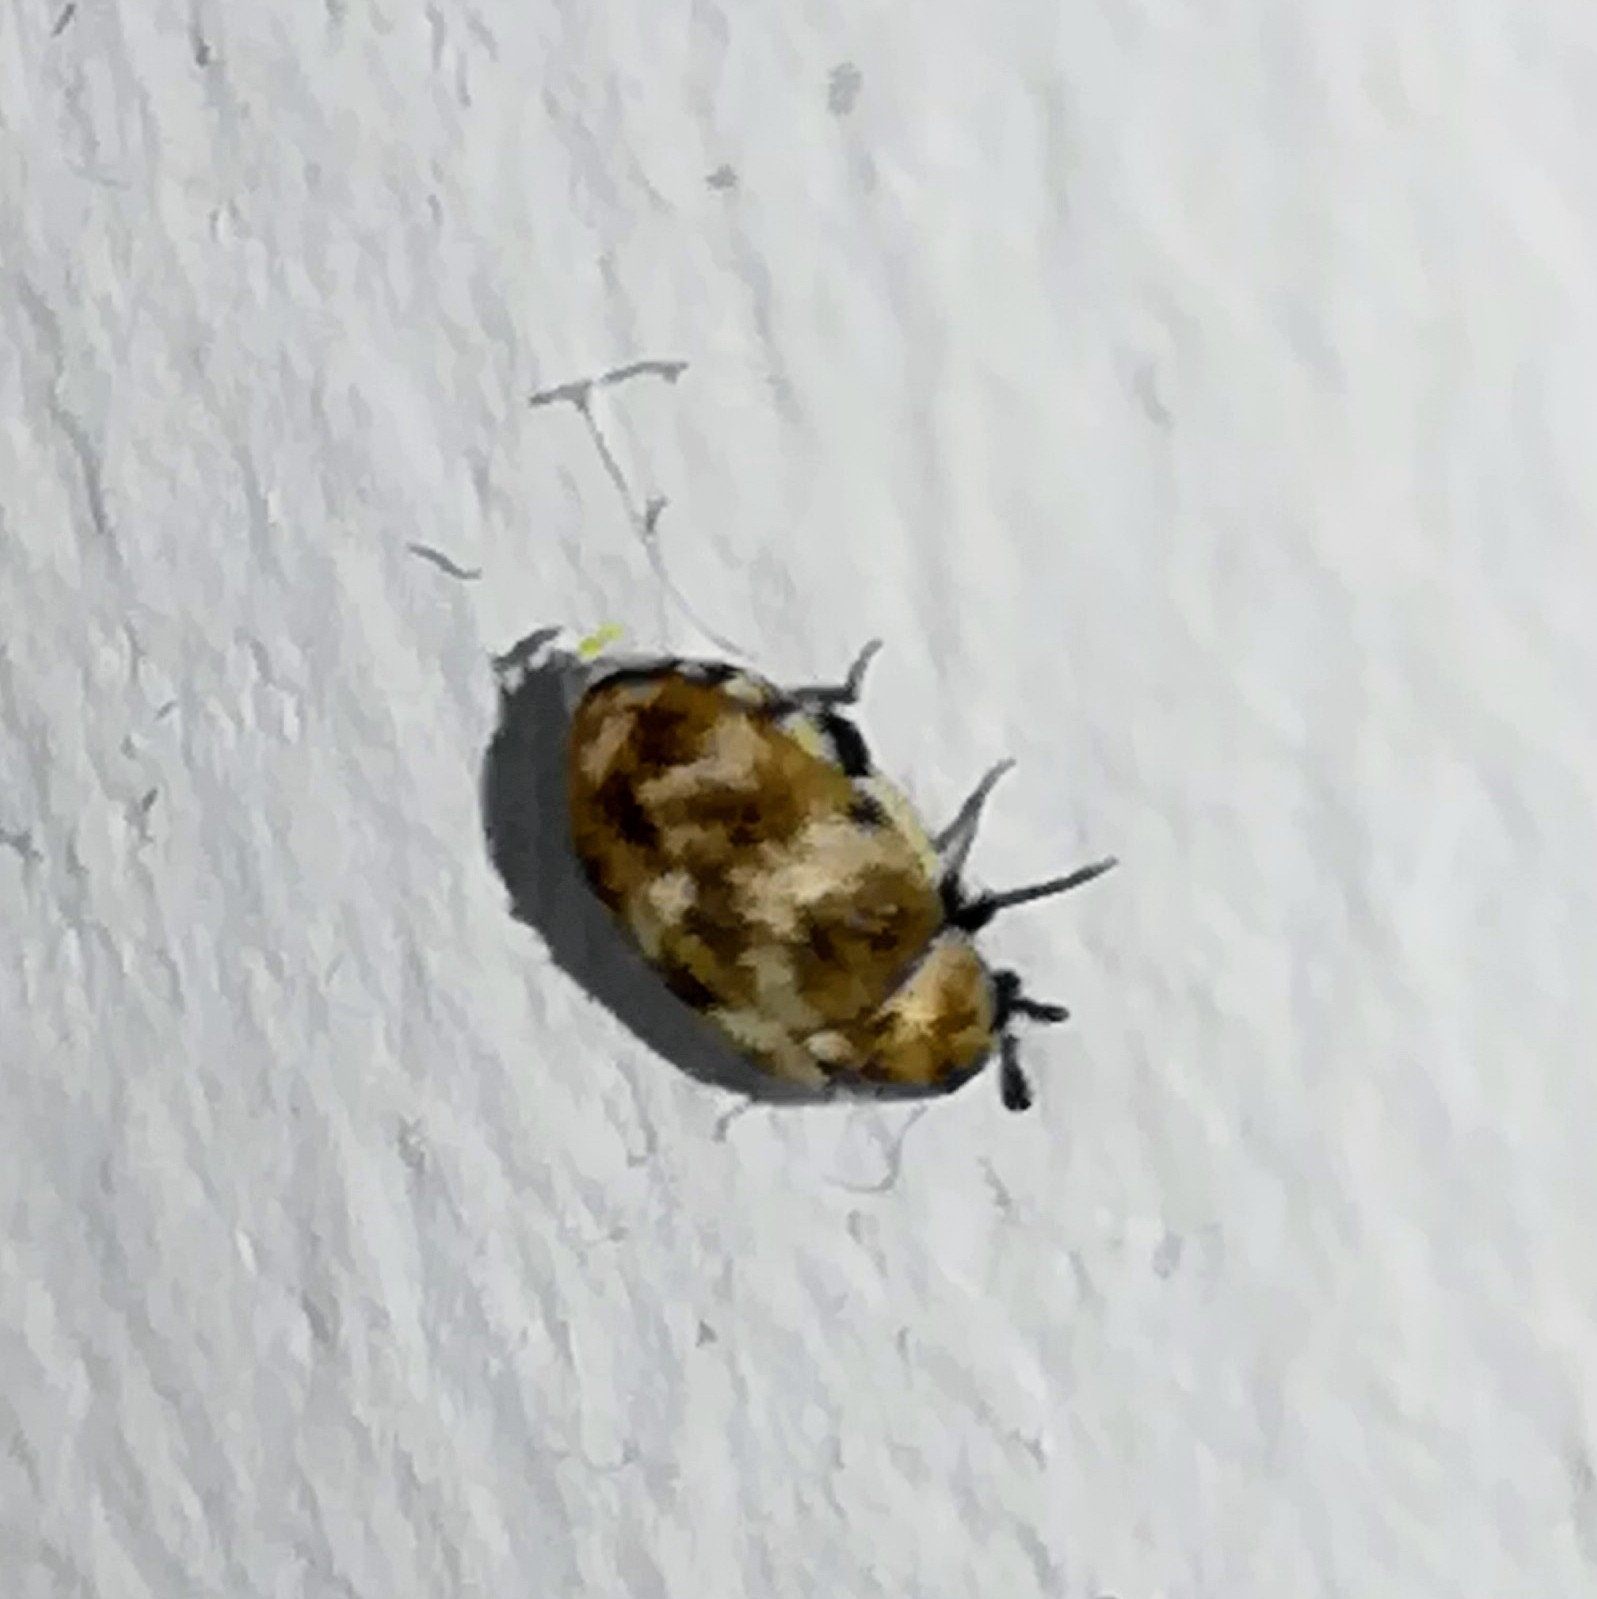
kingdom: Animalia
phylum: Arthropoda
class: Insecta
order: Coleoptera
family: Dermestidae
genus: Anthrenus
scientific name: Anthrenus verbasci
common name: Varied carpet beetle
